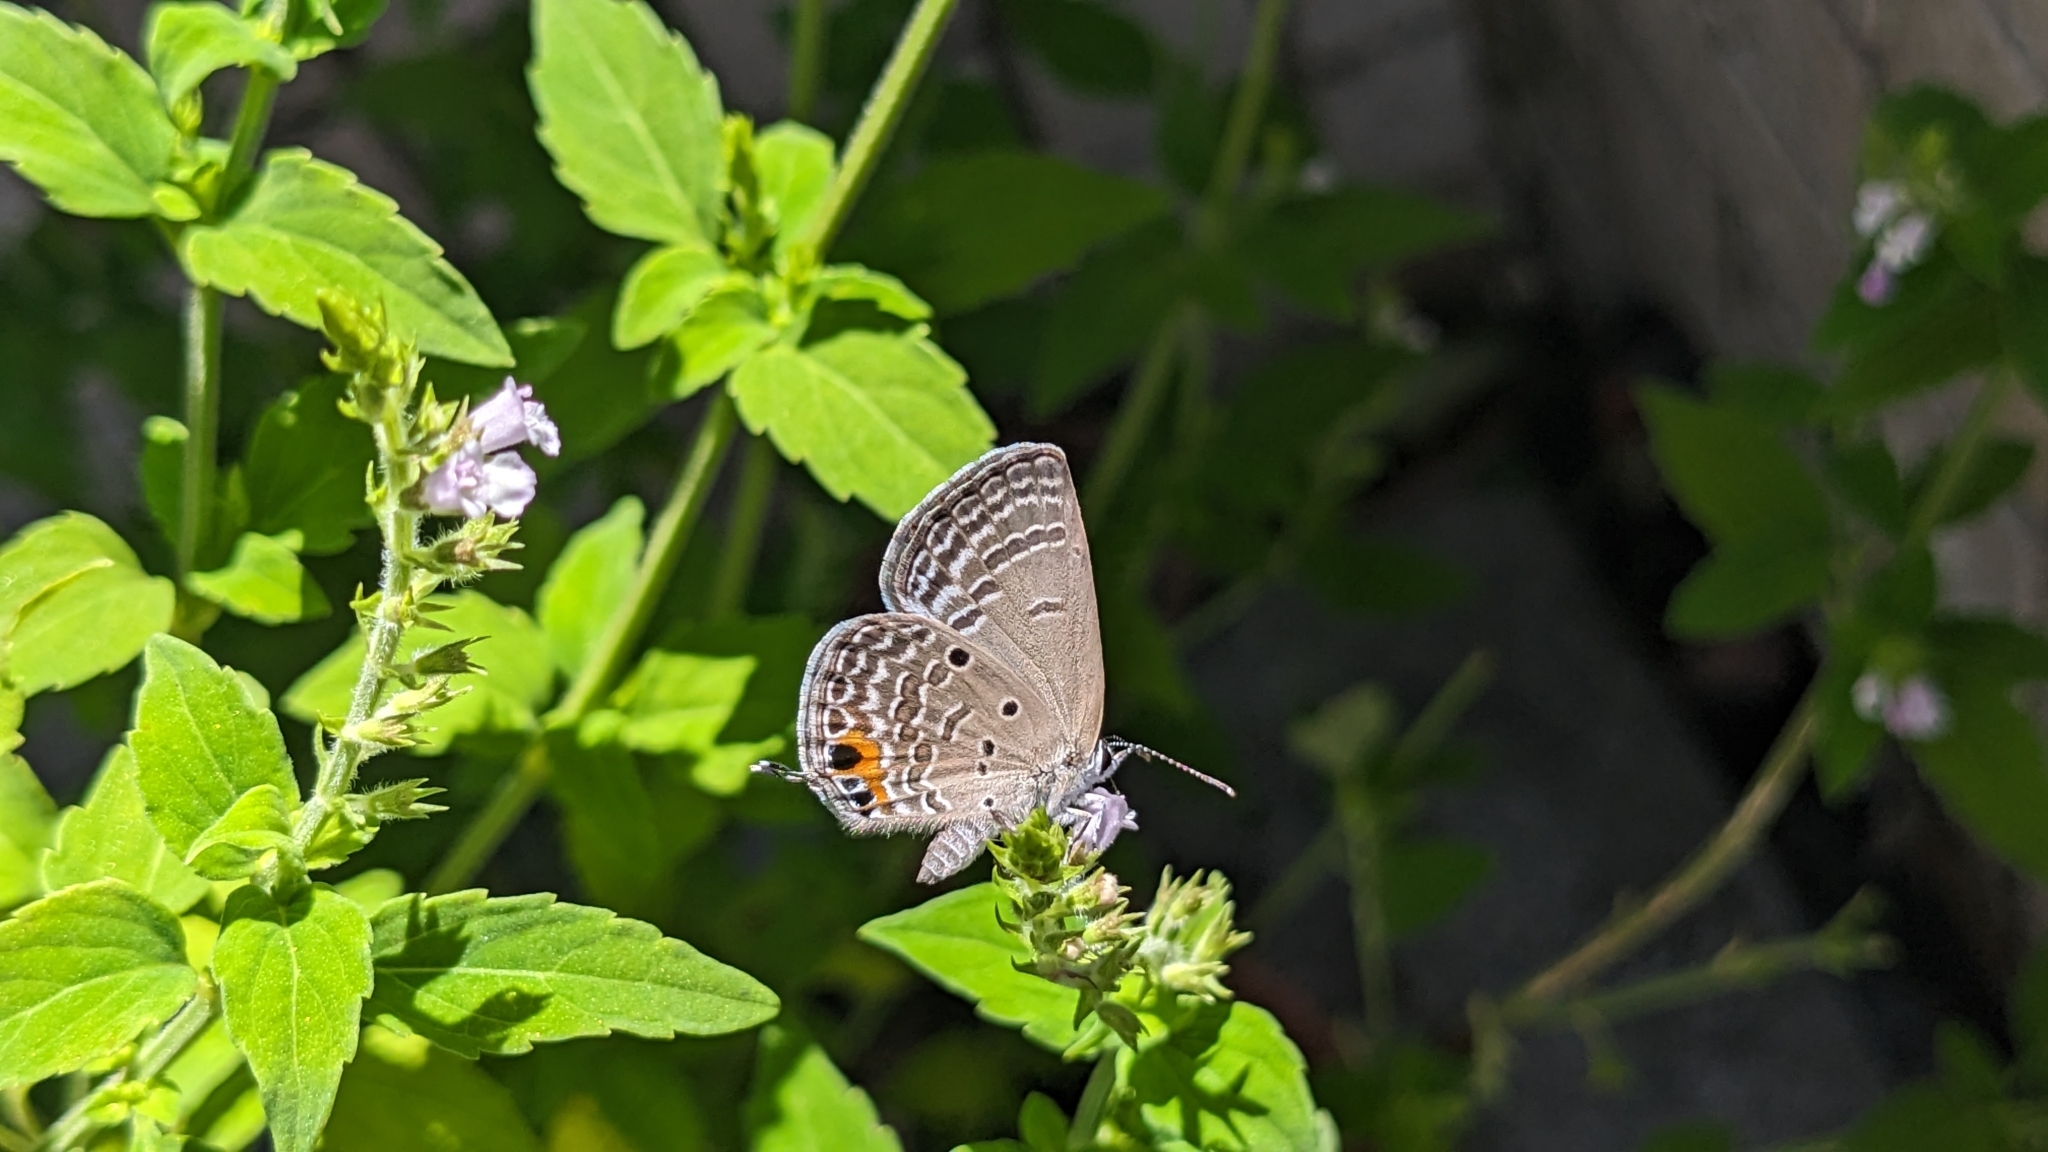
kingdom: Animalia
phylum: Arthropoda
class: Insecta
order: Lepidoptera
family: Lycaenidae
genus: Luthrodes
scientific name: Luthrodes pandava
